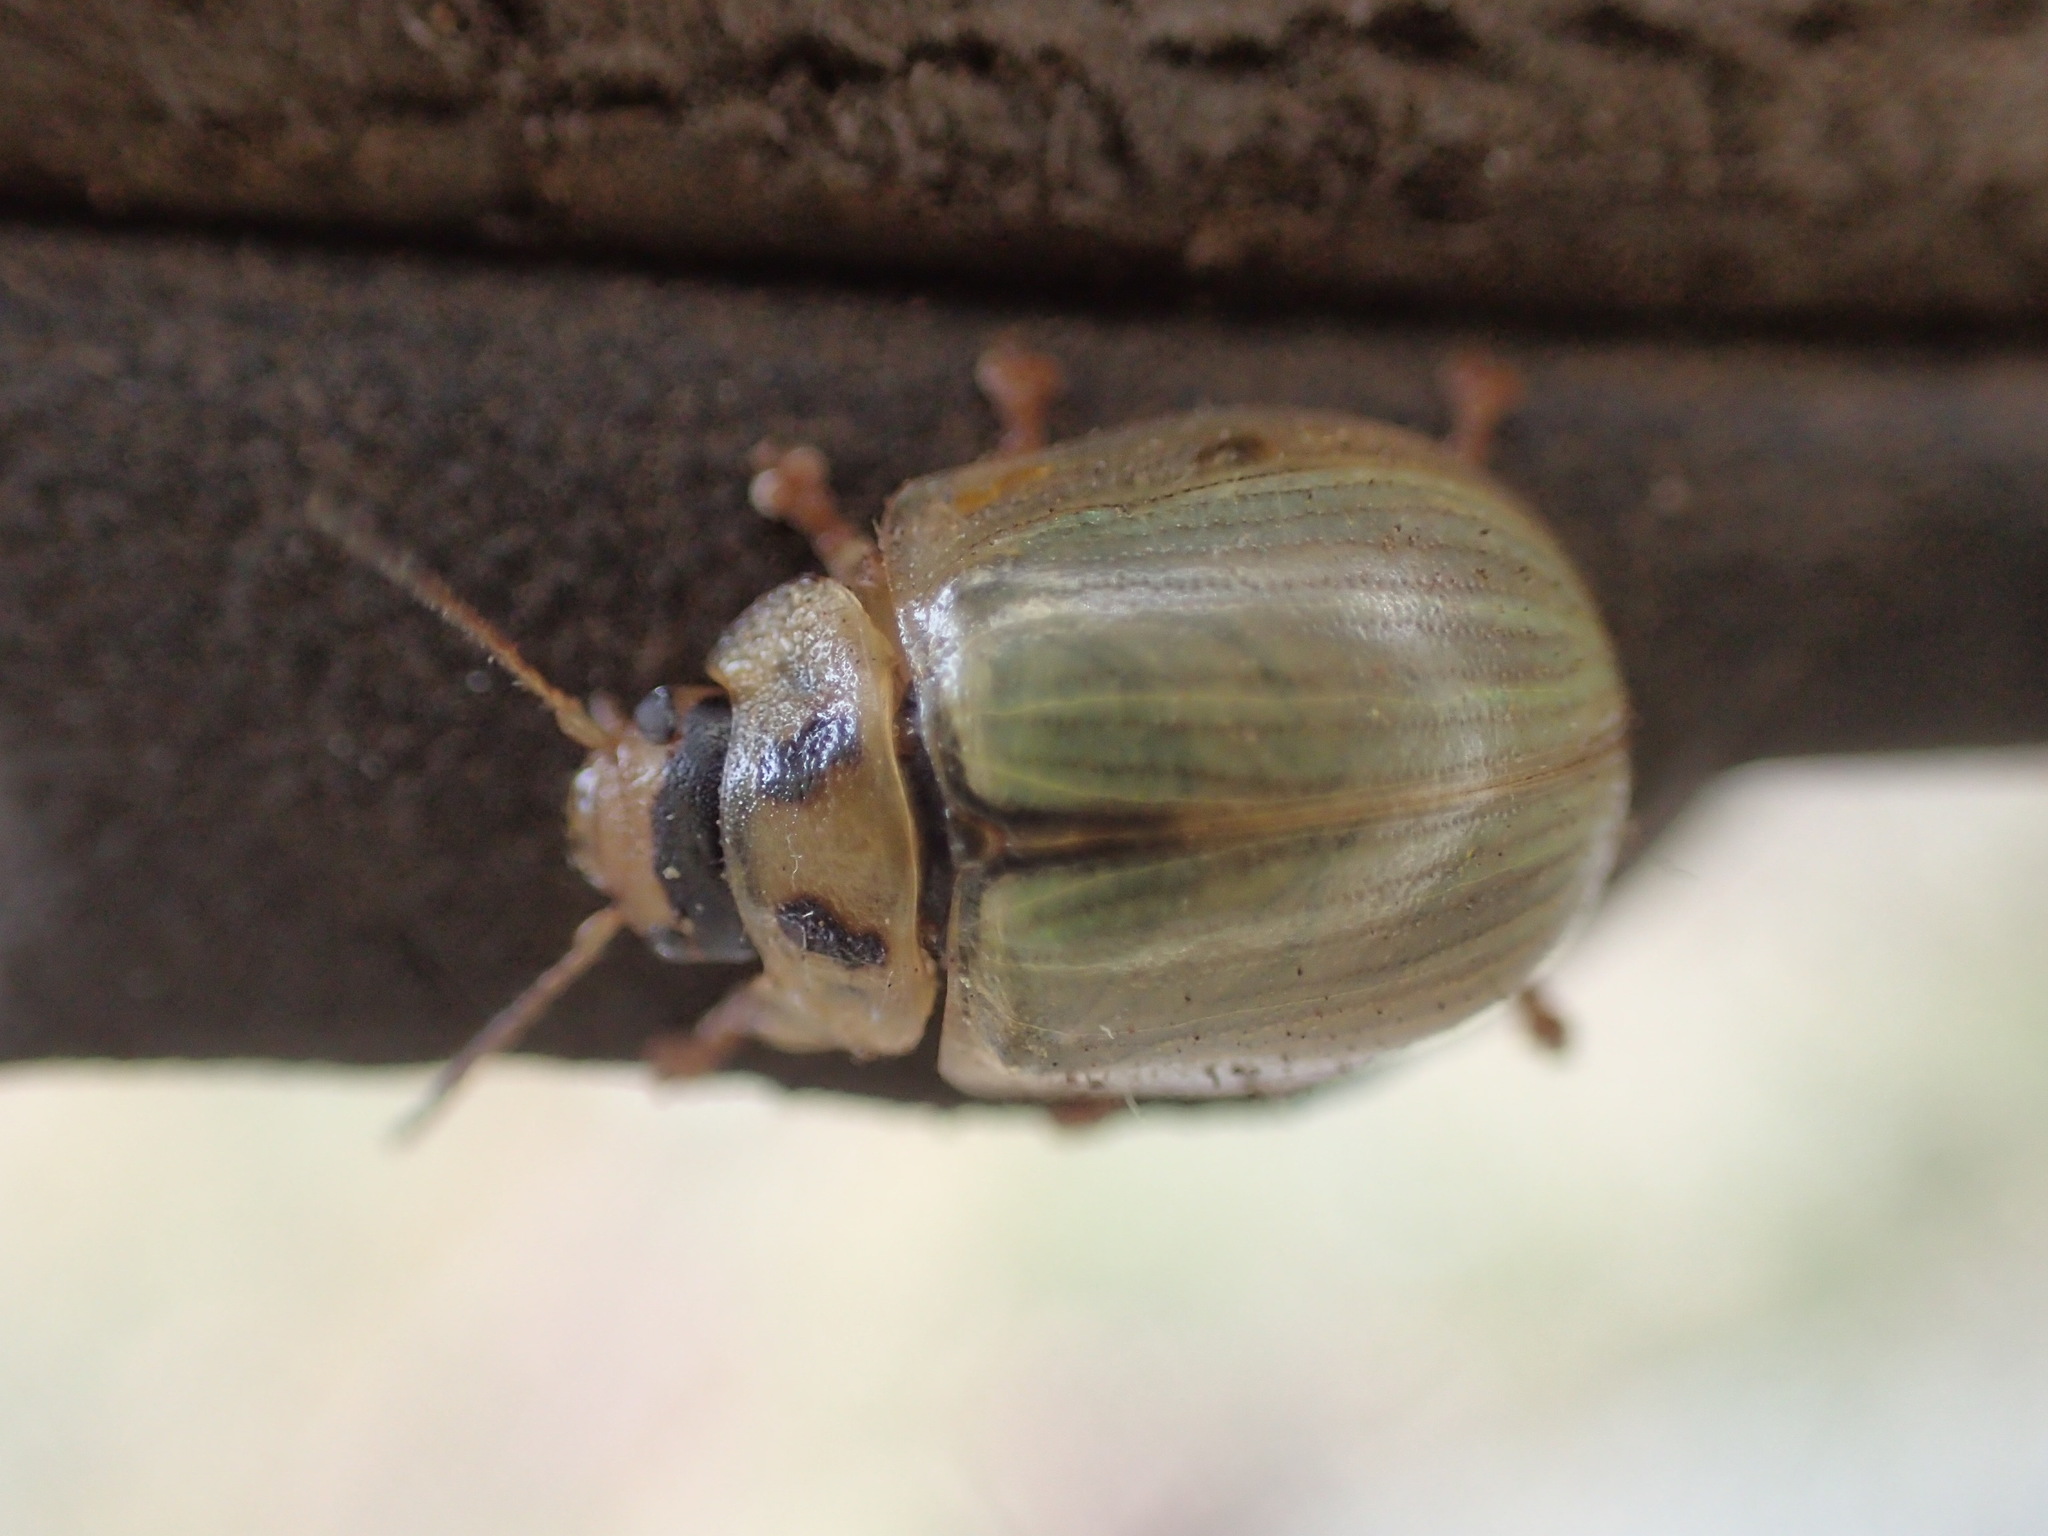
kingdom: Animalia
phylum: Arthropoda
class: Insecta
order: Coleoptera
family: Chrysomelidae
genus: Paropsisterna
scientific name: Paropsisterna bimaculata
